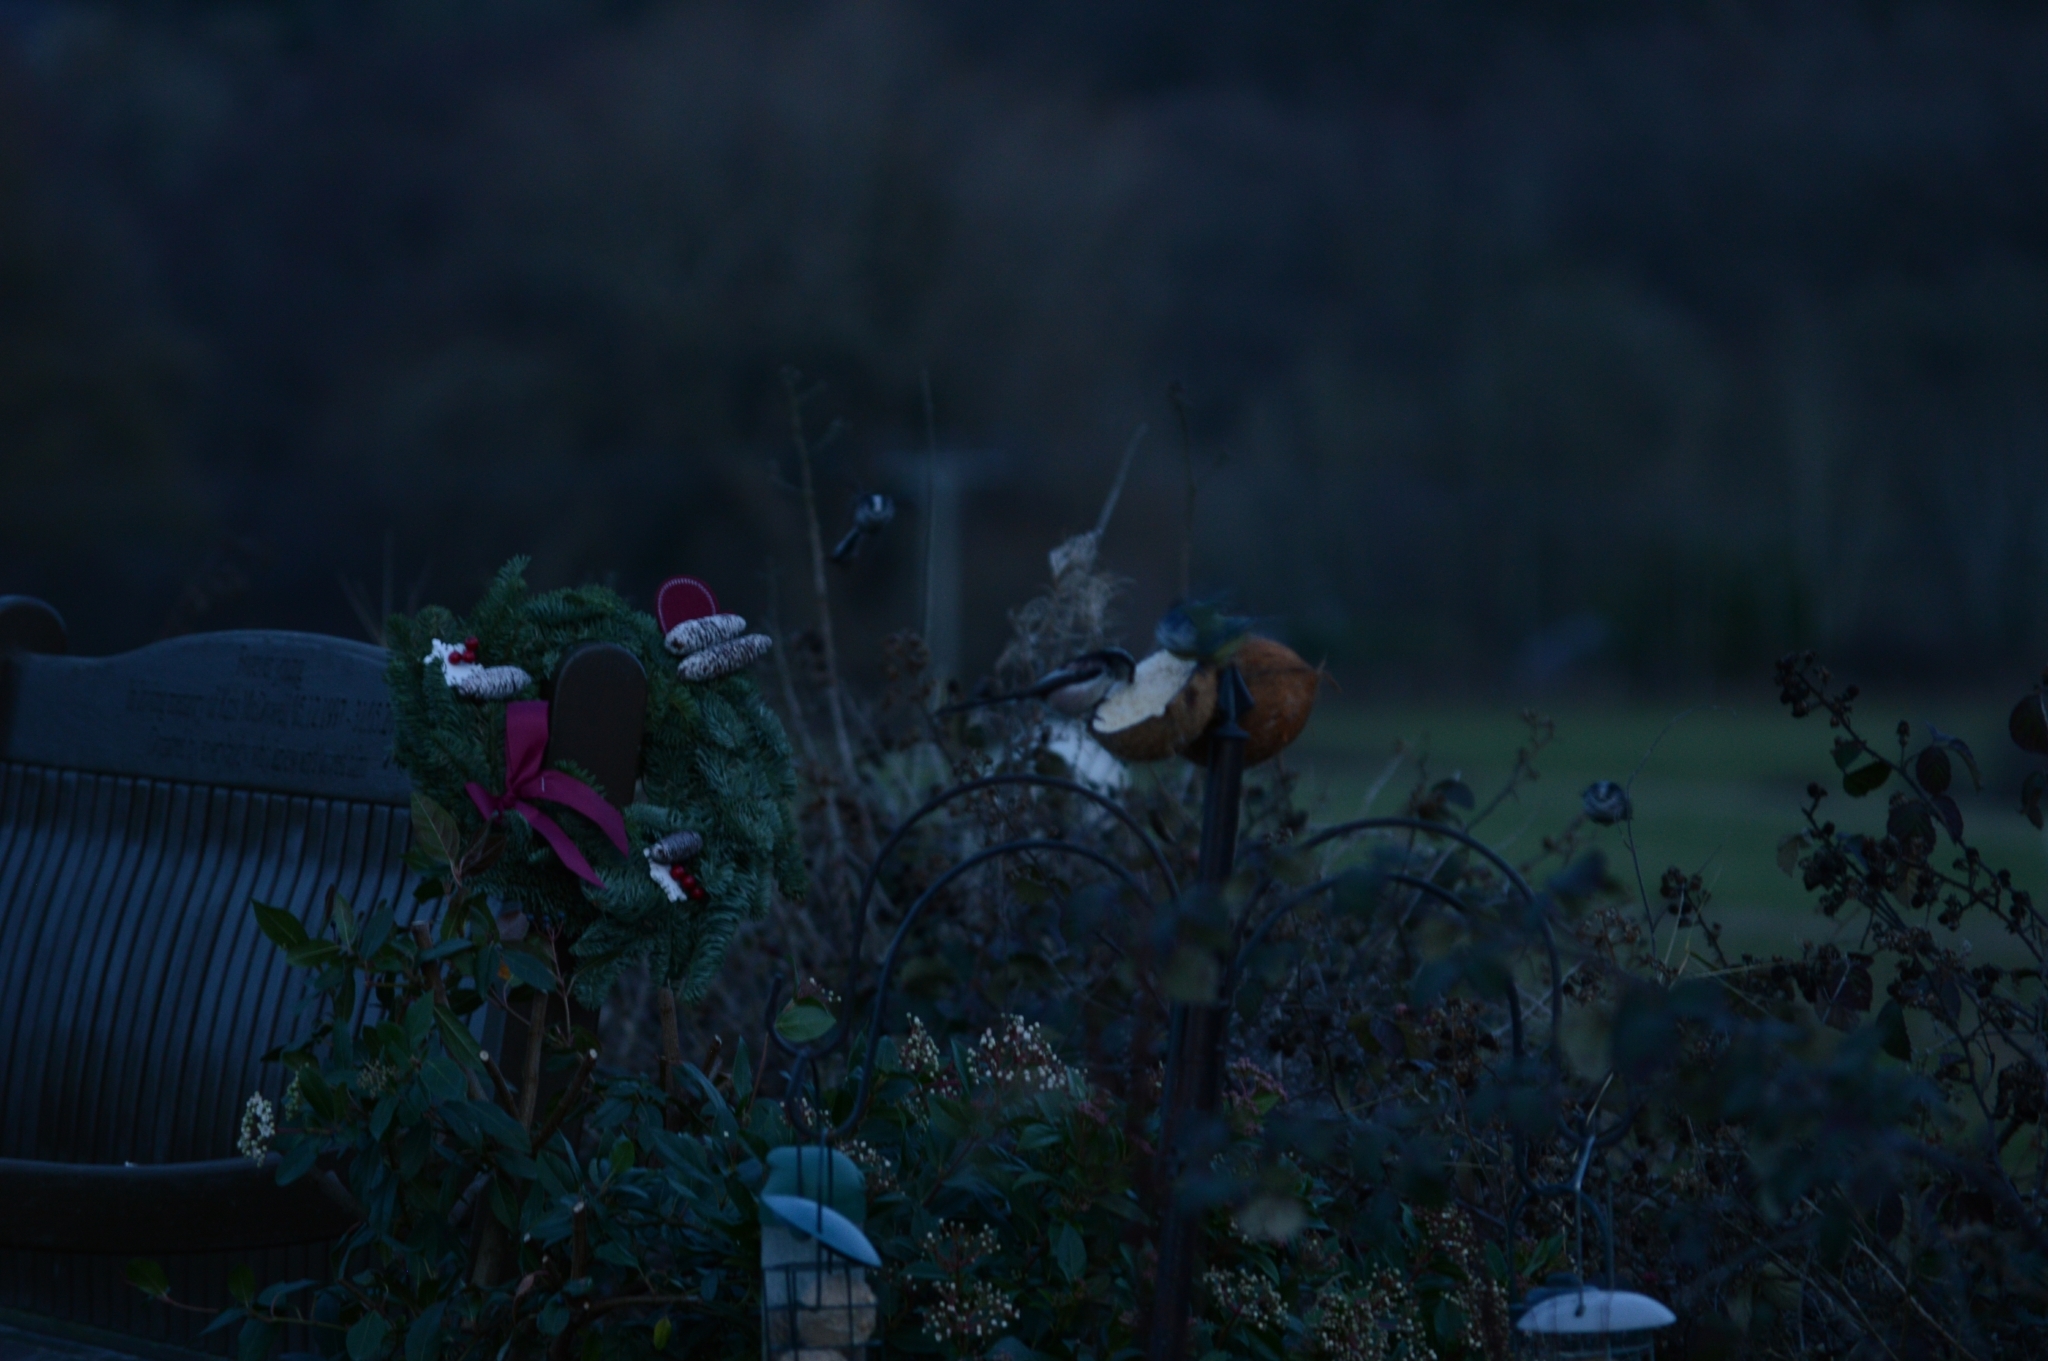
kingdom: Animalia
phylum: Chordata
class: Aves
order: Passeriformes
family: Aegithalidae
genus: Aegithalos
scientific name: Aegithalos caudatus
